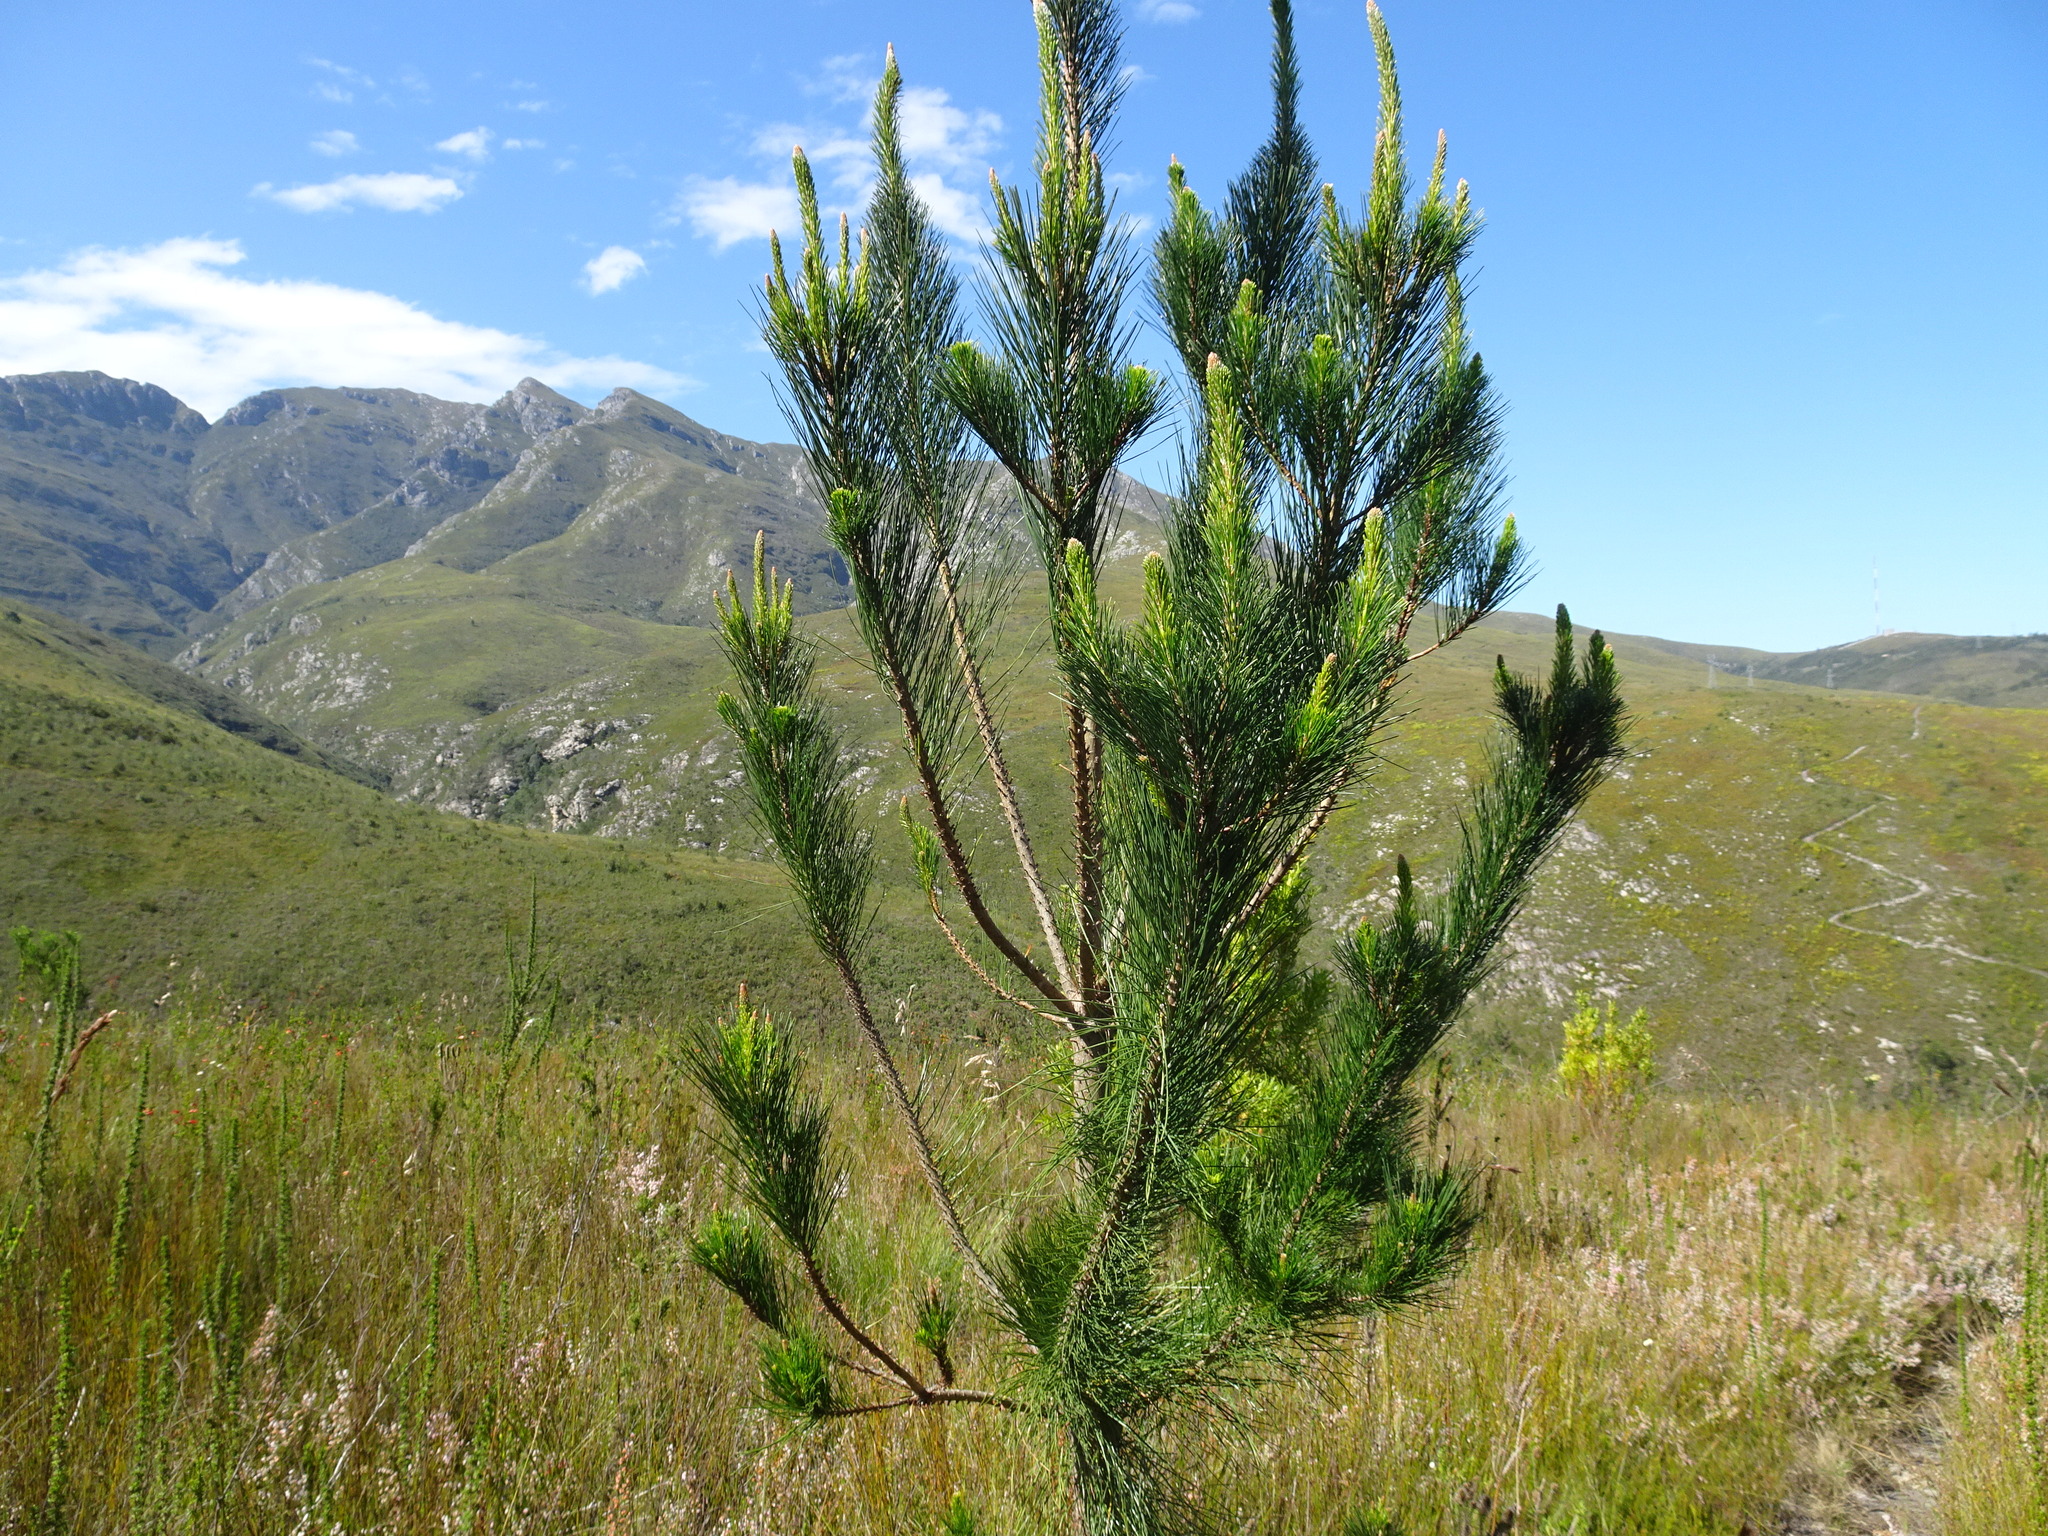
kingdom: Plantae
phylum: Tracheophyta
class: Pinopsida
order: Pinales
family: Pinaceae
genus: Pinus
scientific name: Pinus pinaster
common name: Maritime pine
